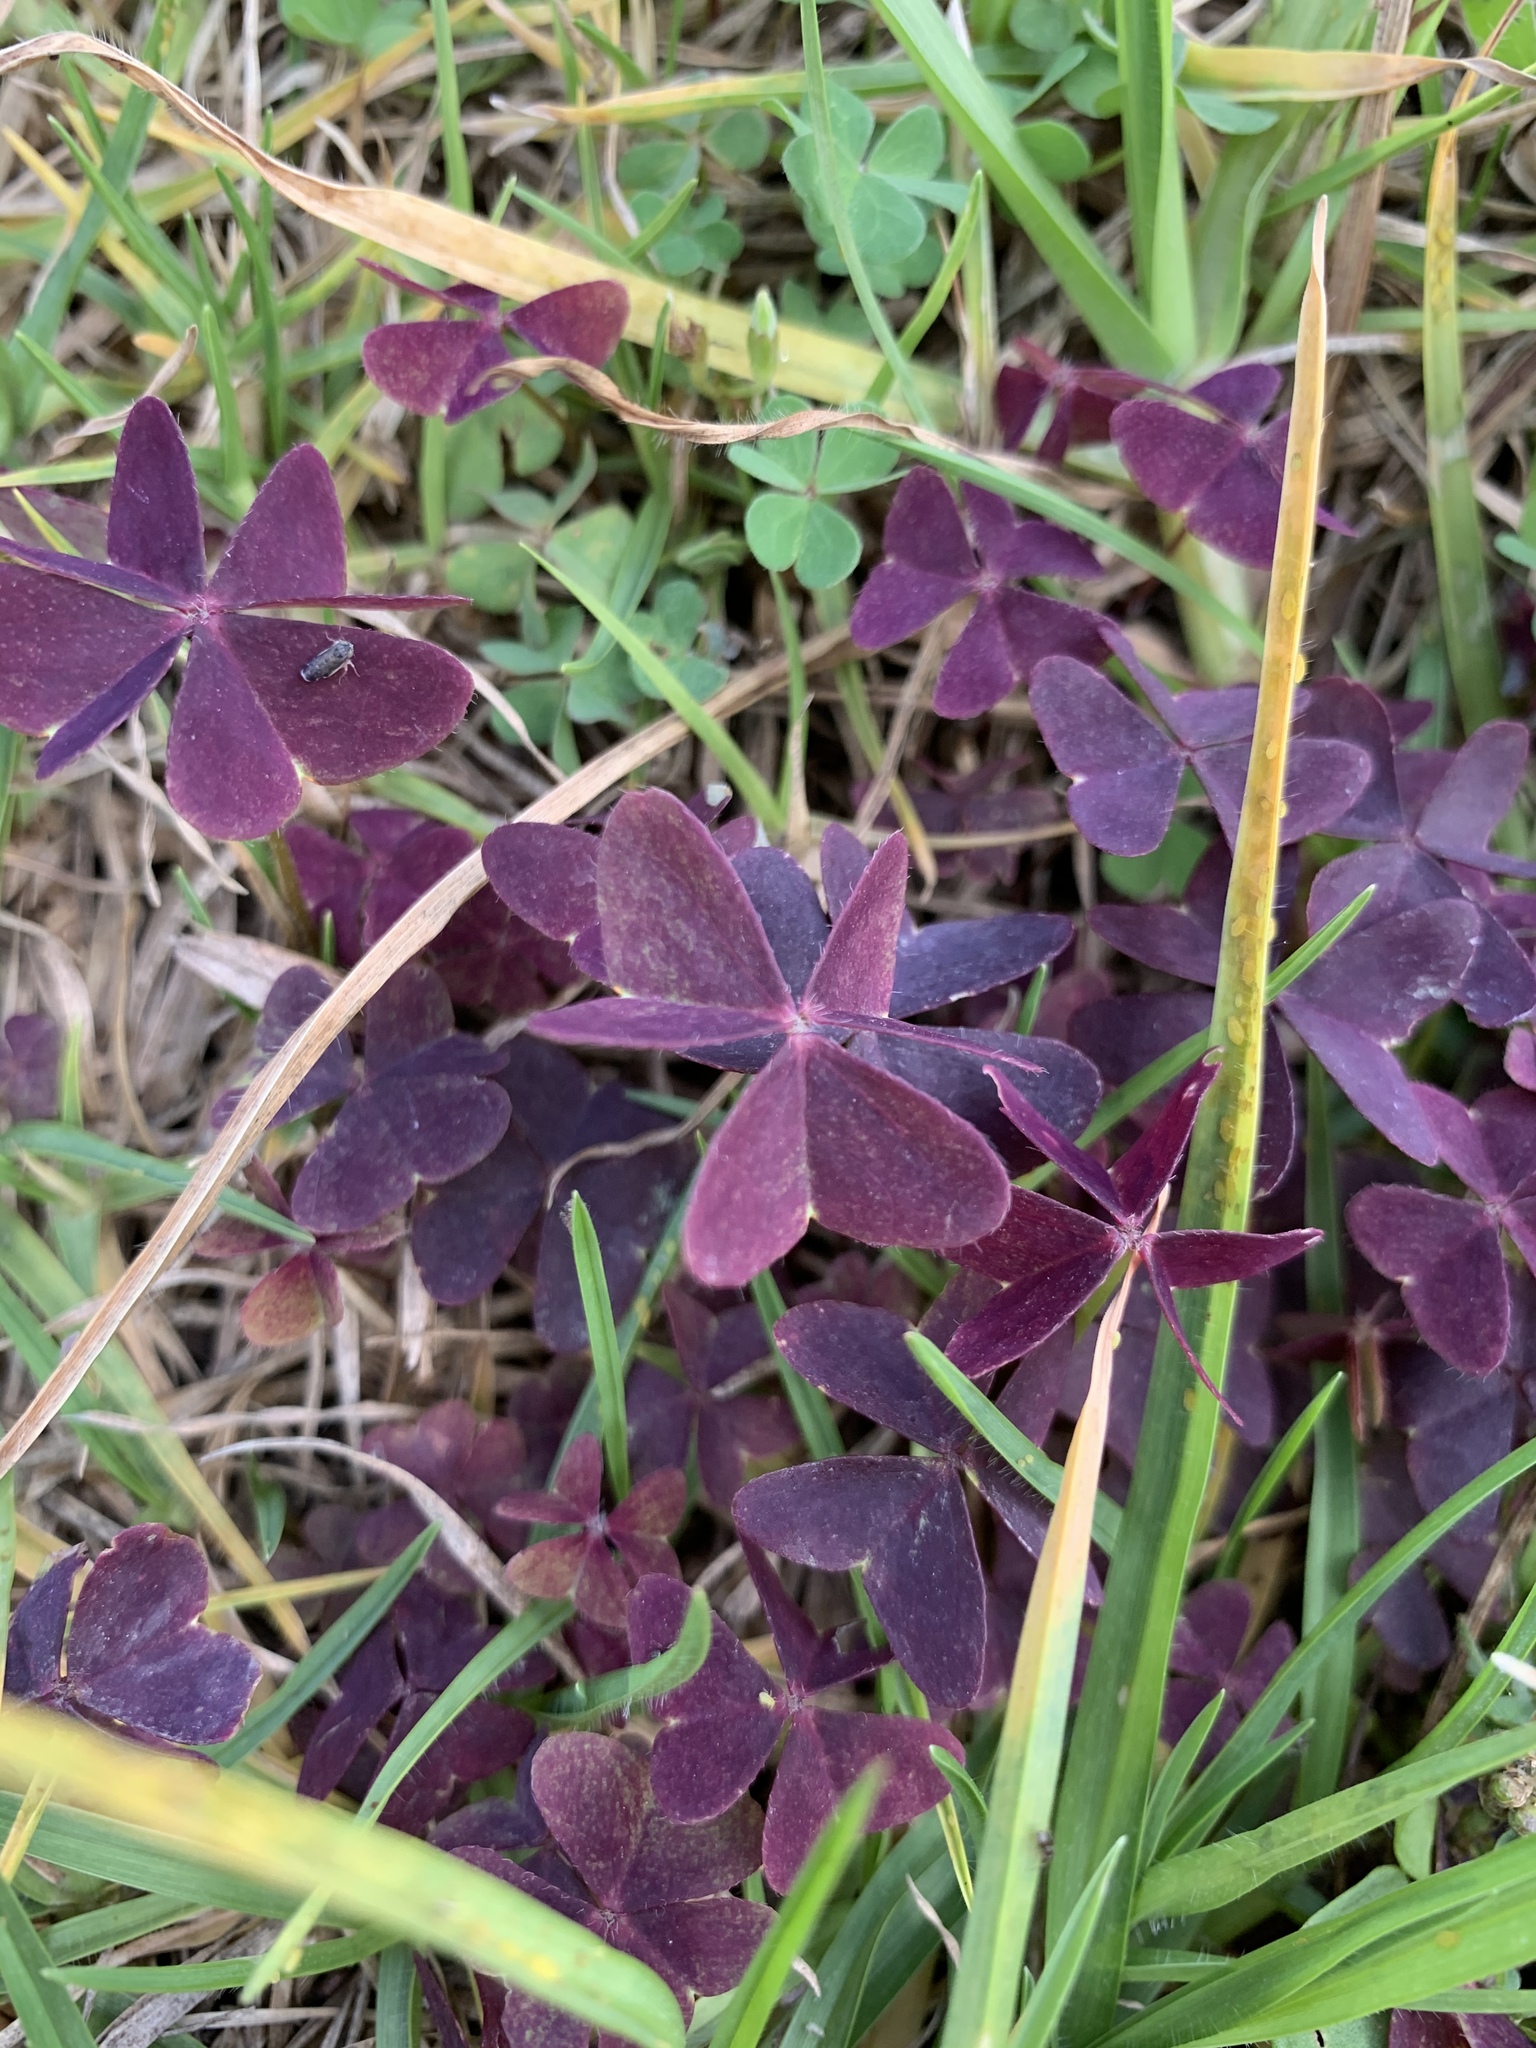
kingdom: Plantae
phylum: Tracheophyta
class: Magnoliopsida
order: Oxalidales
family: Oxalidaceae
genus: Oxalis
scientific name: Oxalis triangularis
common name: Wood sorrel
